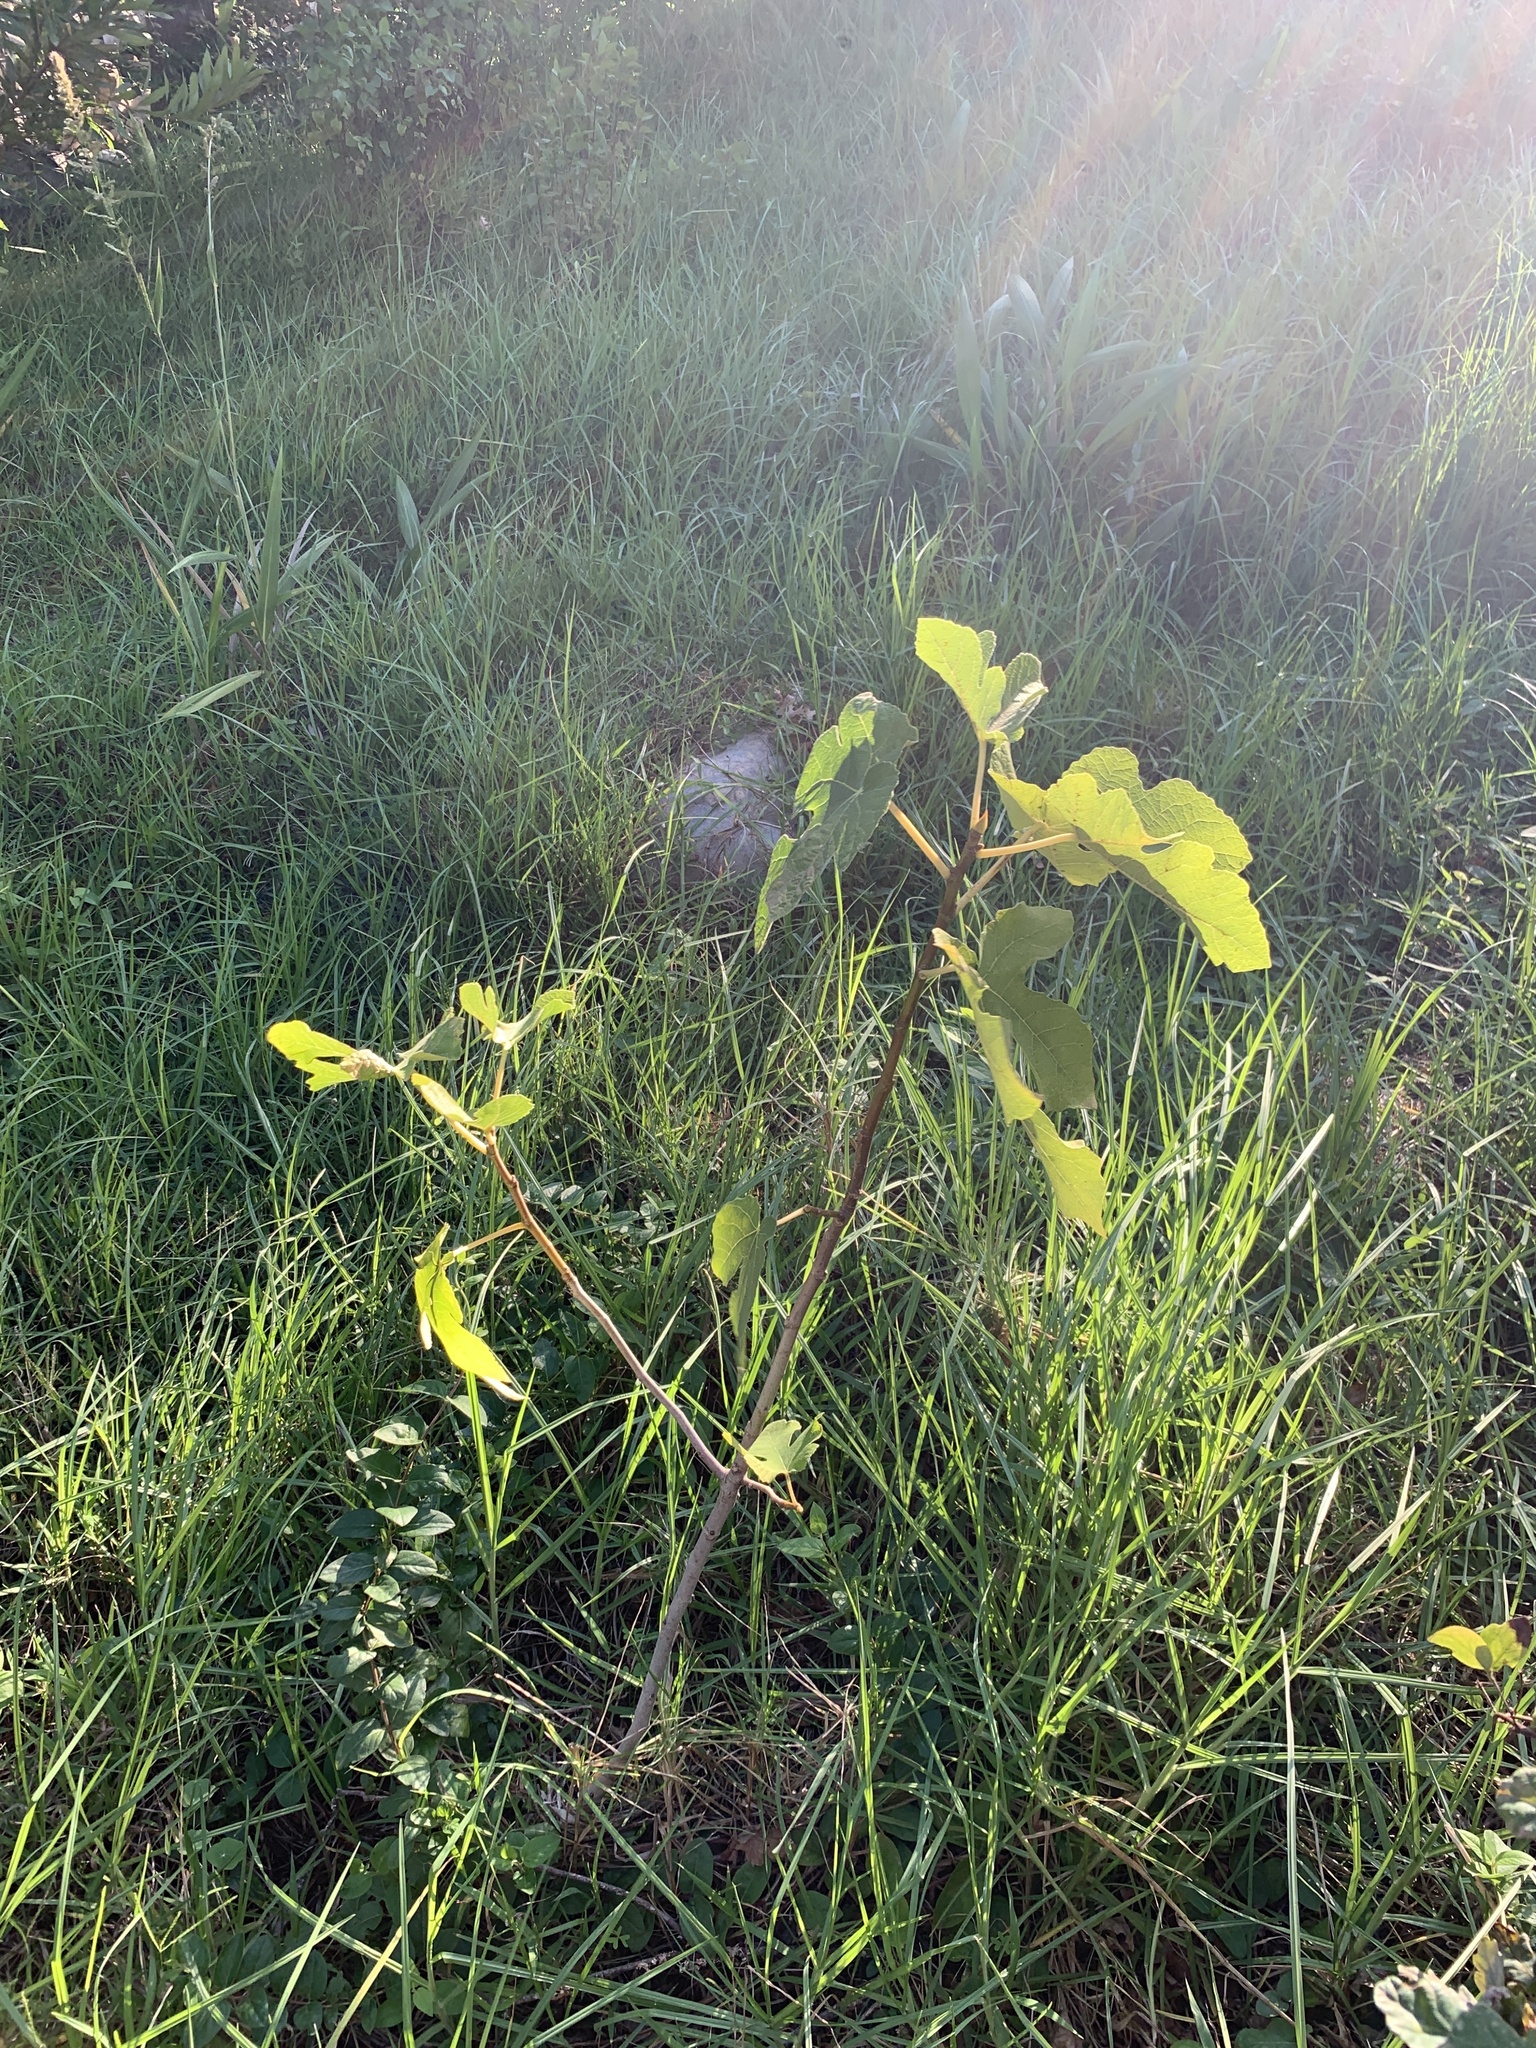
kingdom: Plantae
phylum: Tracheophyta
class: Magnoliopsida
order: Rosales
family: Moraceae
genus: Ficus
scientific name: Ficus carica
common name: Fig
